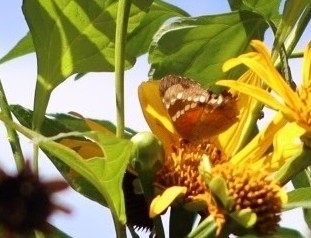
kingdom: Animalia
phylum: Arthropoda
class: Insecta
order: Lepidoptera
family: Nymphalidae
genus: Anartia
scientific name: Anartia amathea
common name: Red peacock
